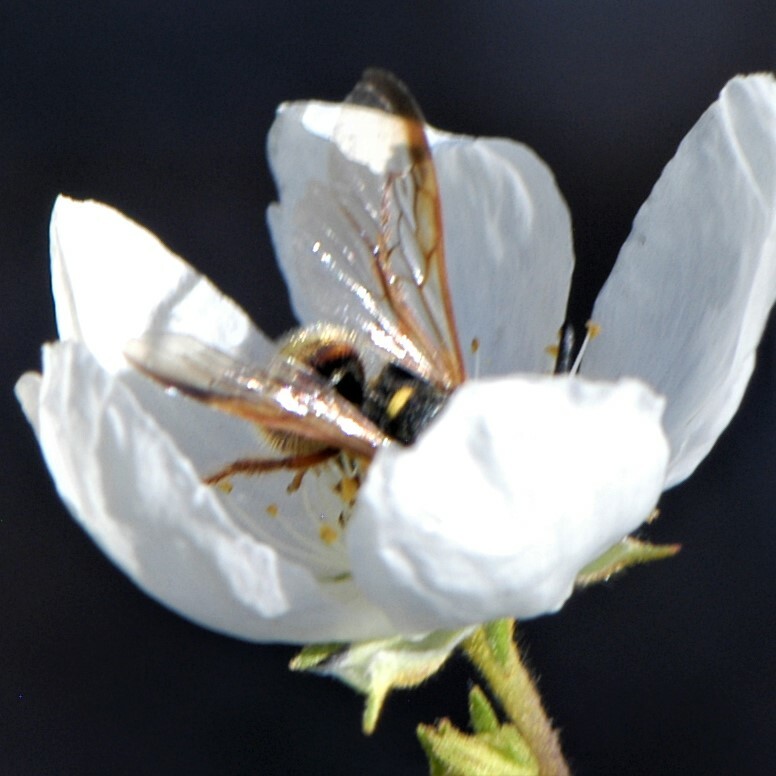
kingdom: Animalia
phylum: Arthropoda
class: Insecta
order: Hymenoptera
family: Scoliidae
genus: Scolia
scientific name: Scolia nobilitata
